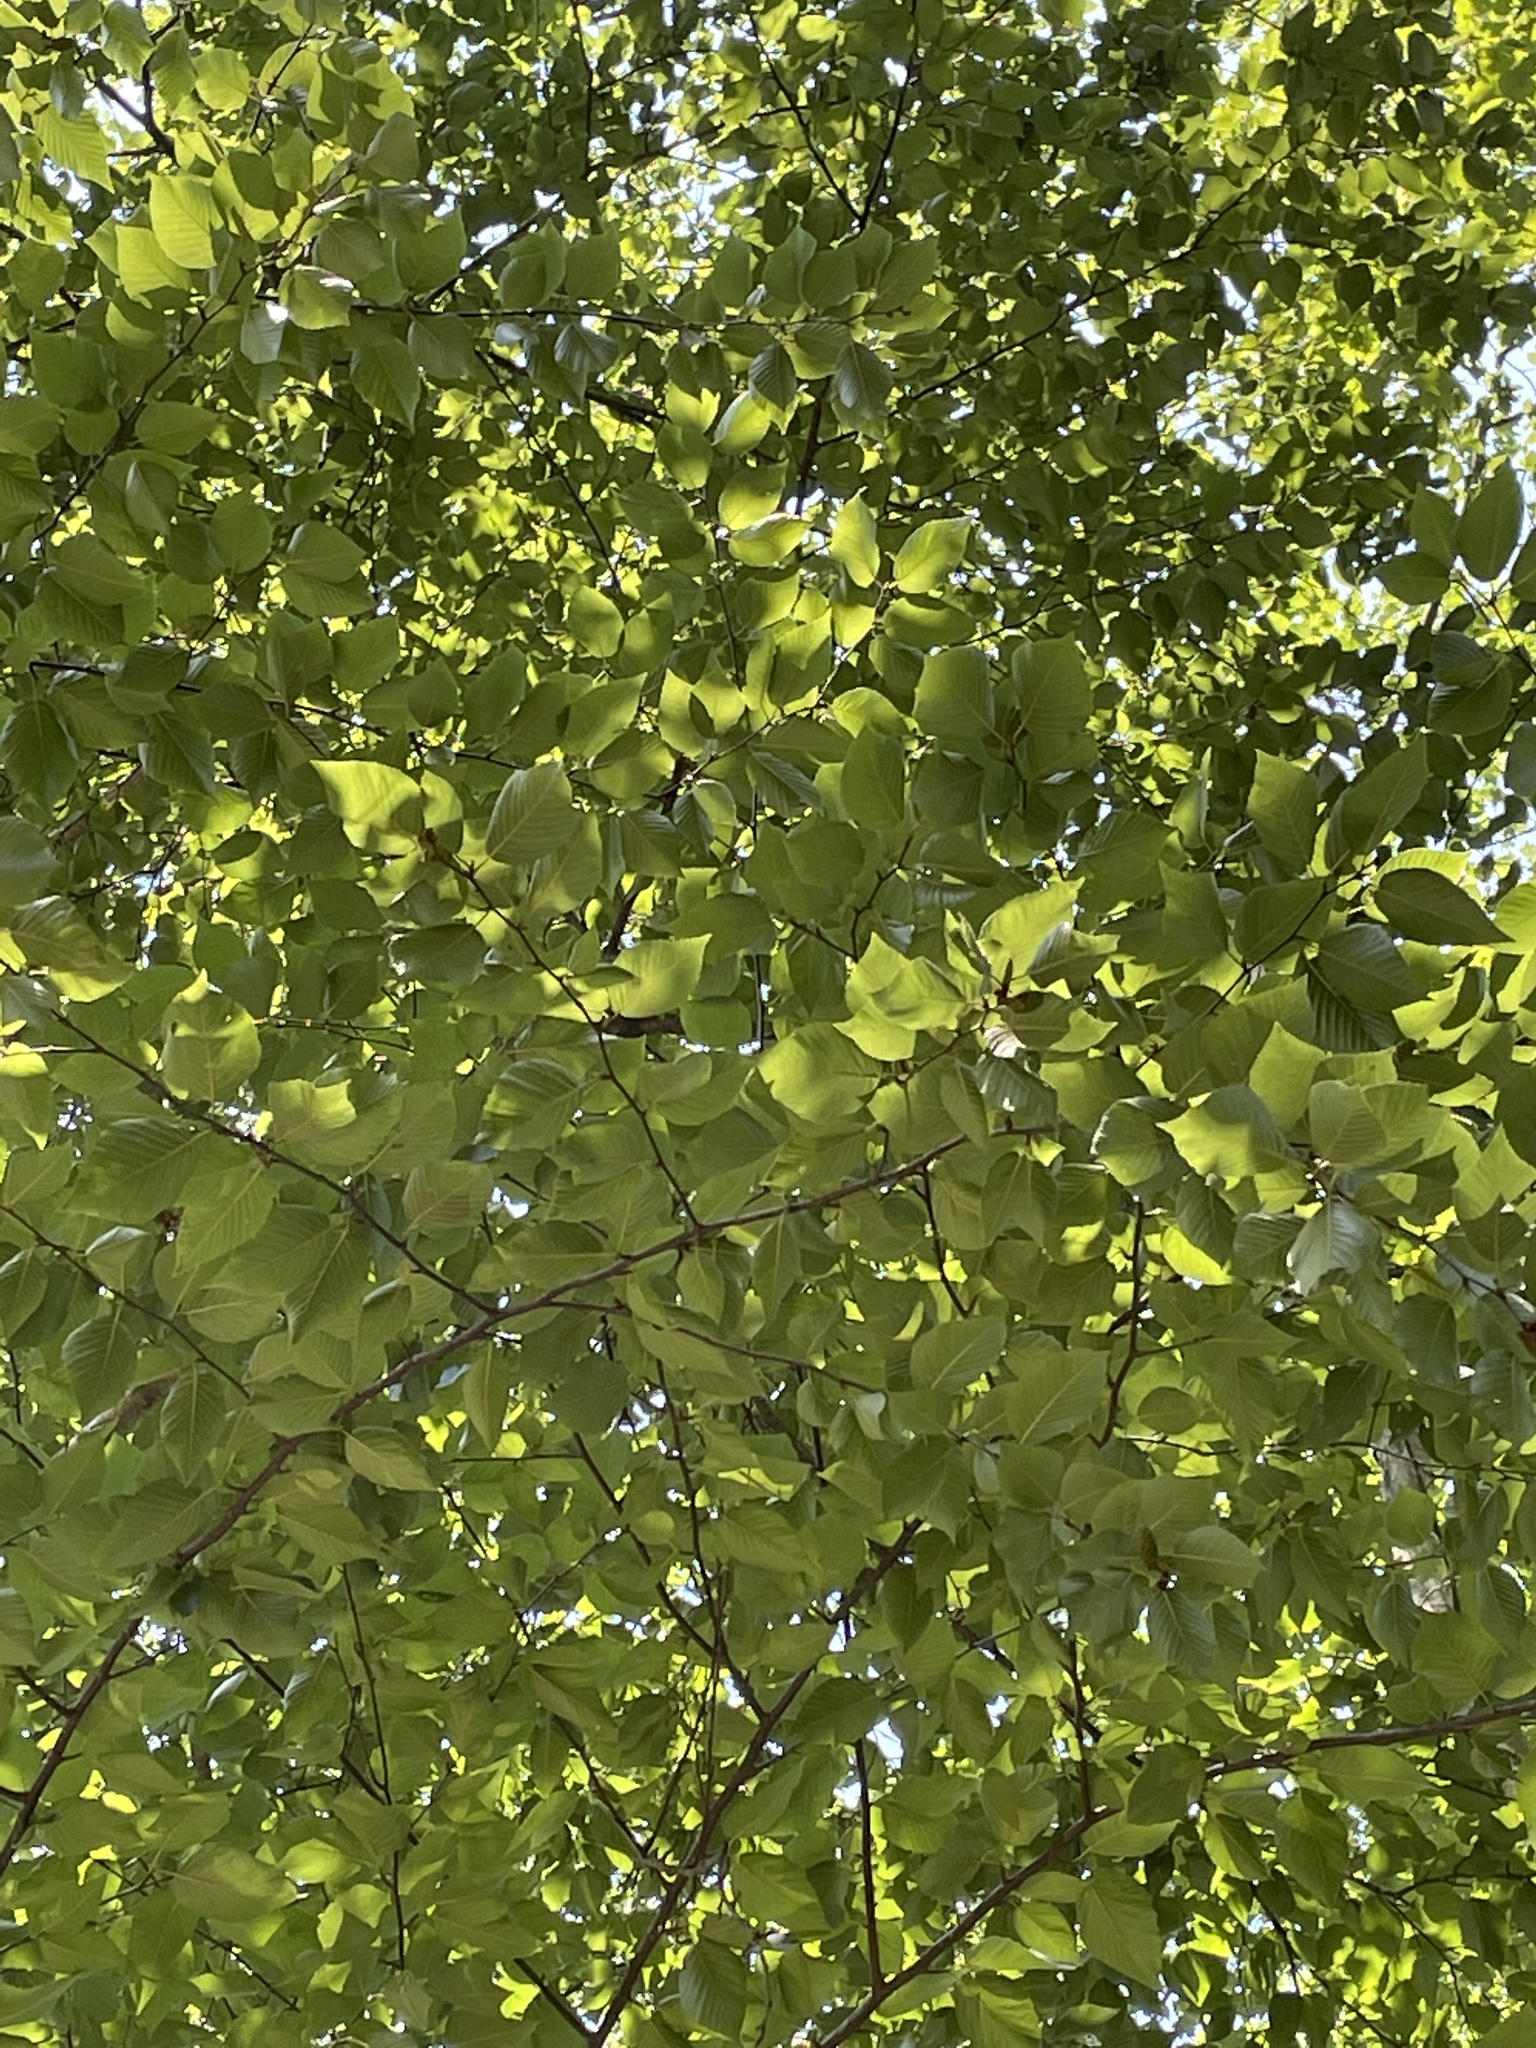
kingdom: Plantae
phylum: Tracheophyta
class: Magnoliopsida
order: Fagales
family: Betulaceae
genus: Betula
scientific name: Betula lenta
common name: Black birch
